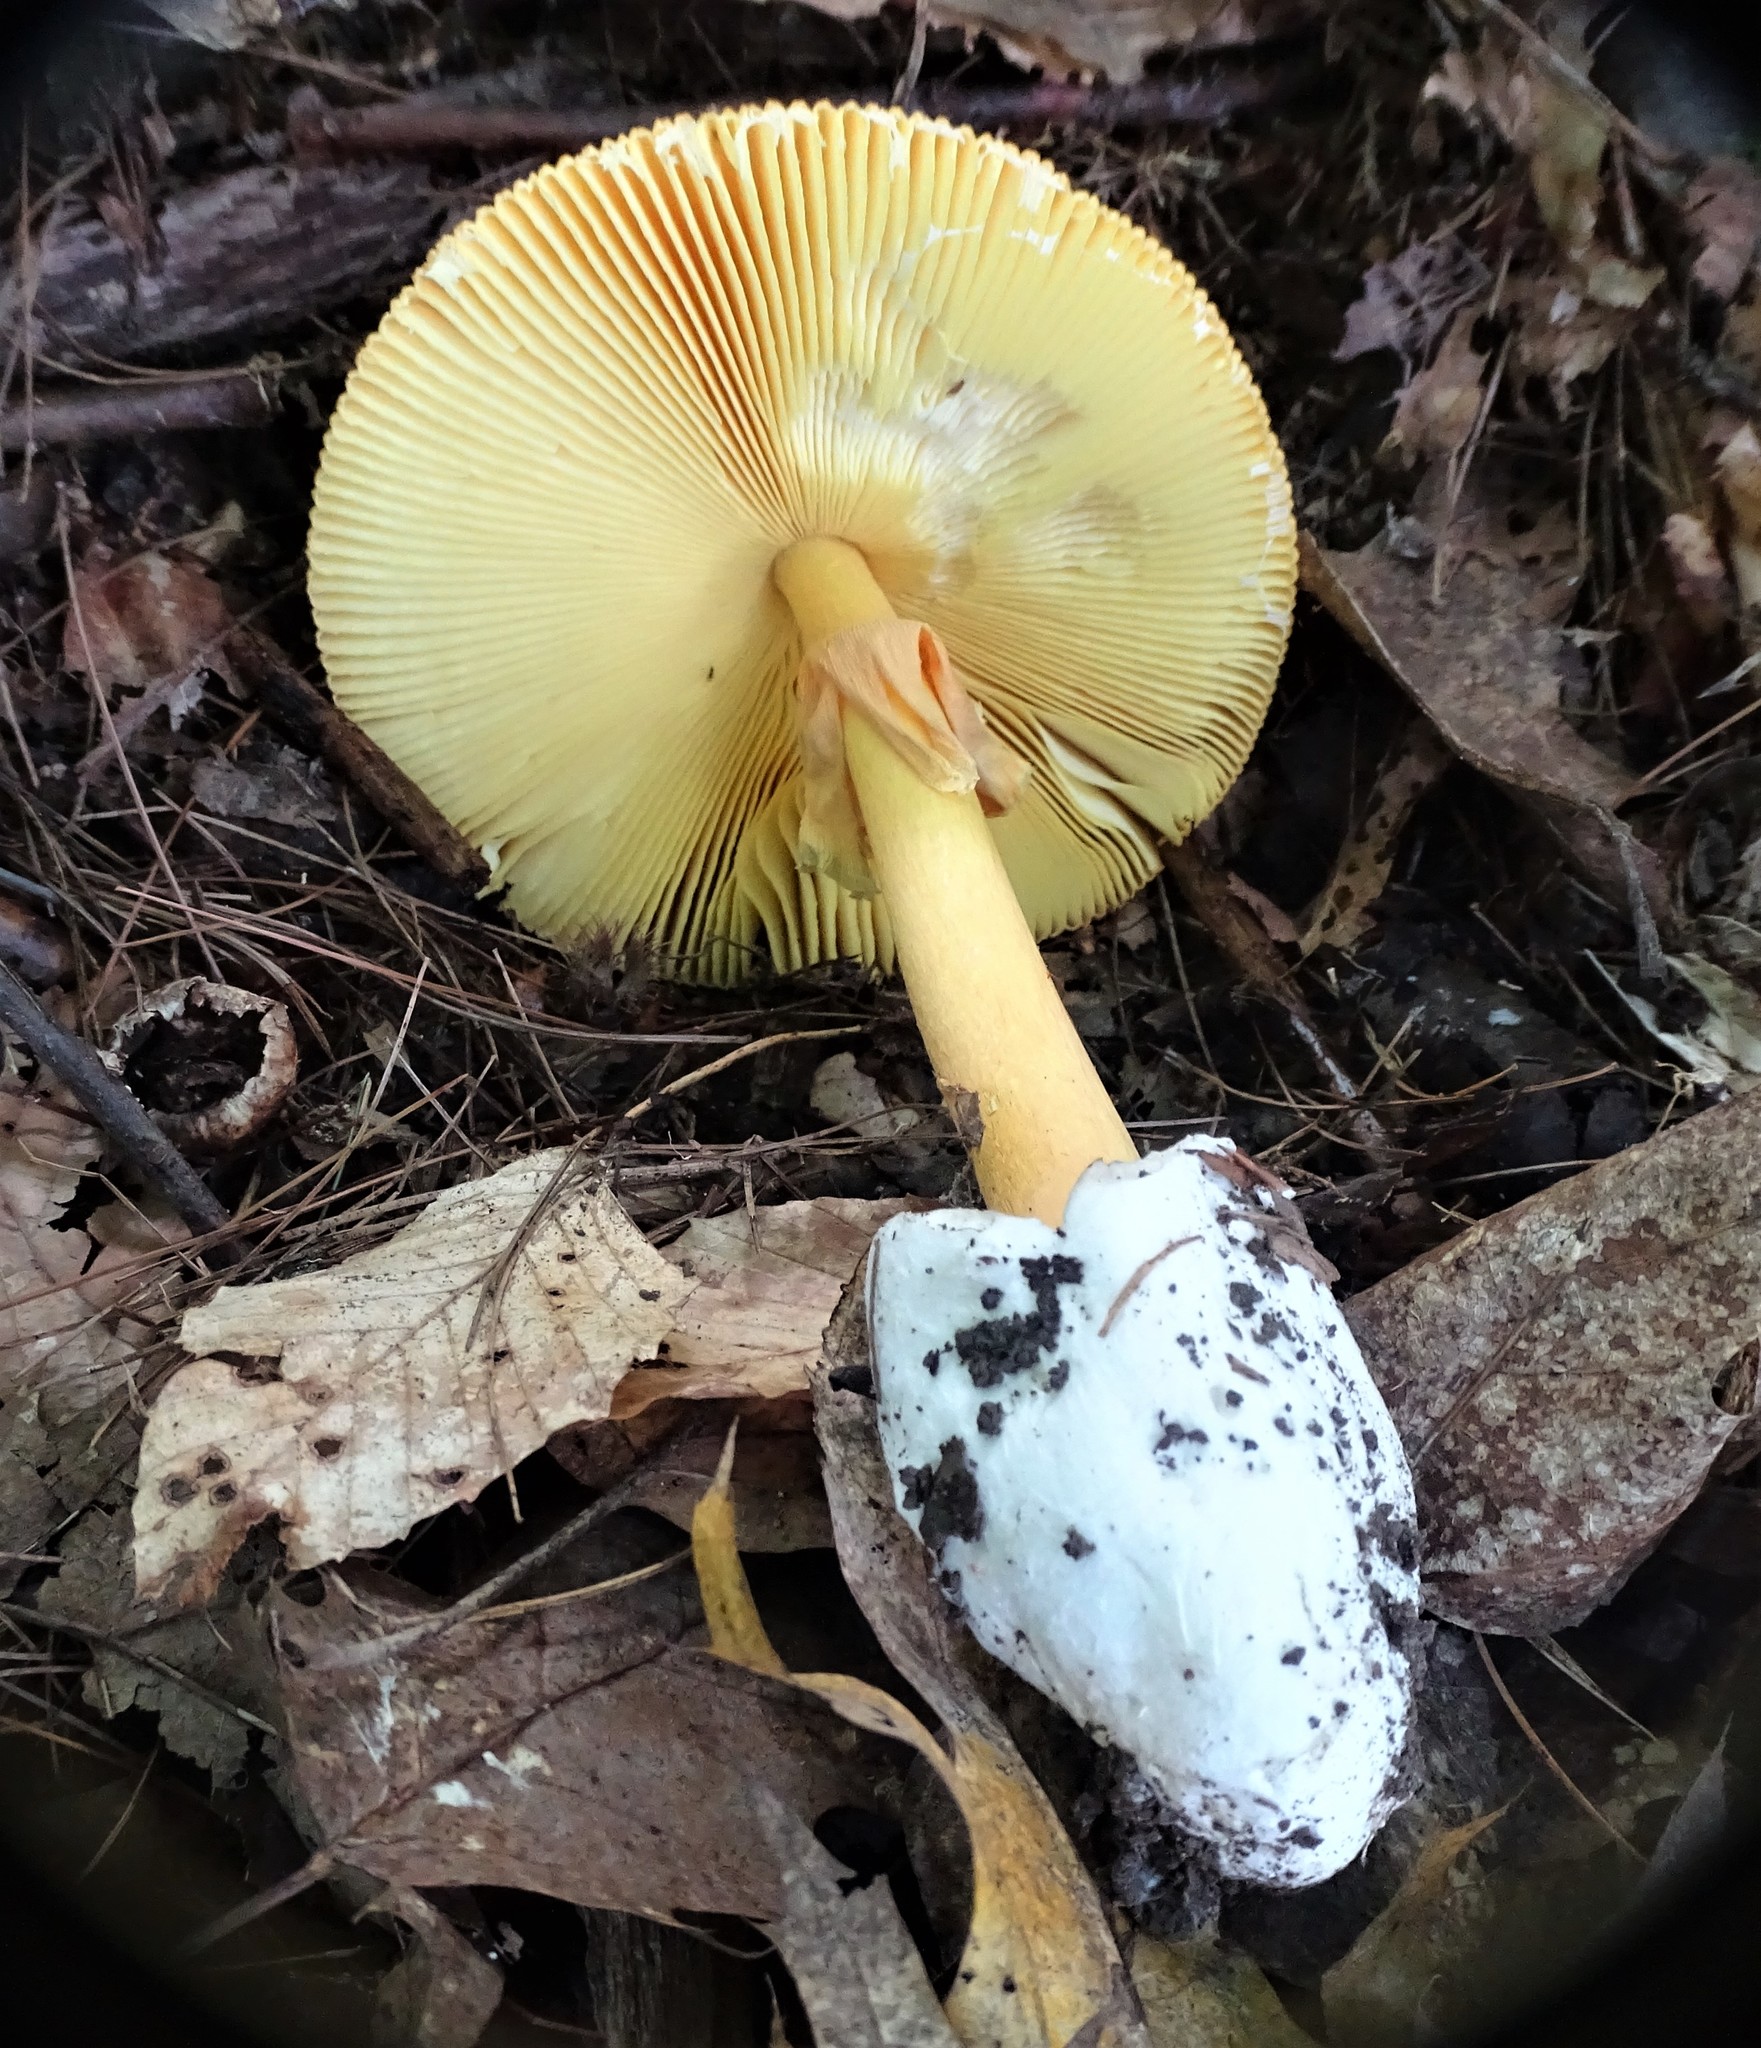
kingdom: Fungi
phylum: Basidiomycota
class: Agaricomycetes
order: Agaricales
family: Amanitaceae
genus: Amanita
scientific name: Amanita jacksonii
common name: Jackson's slender caesar
